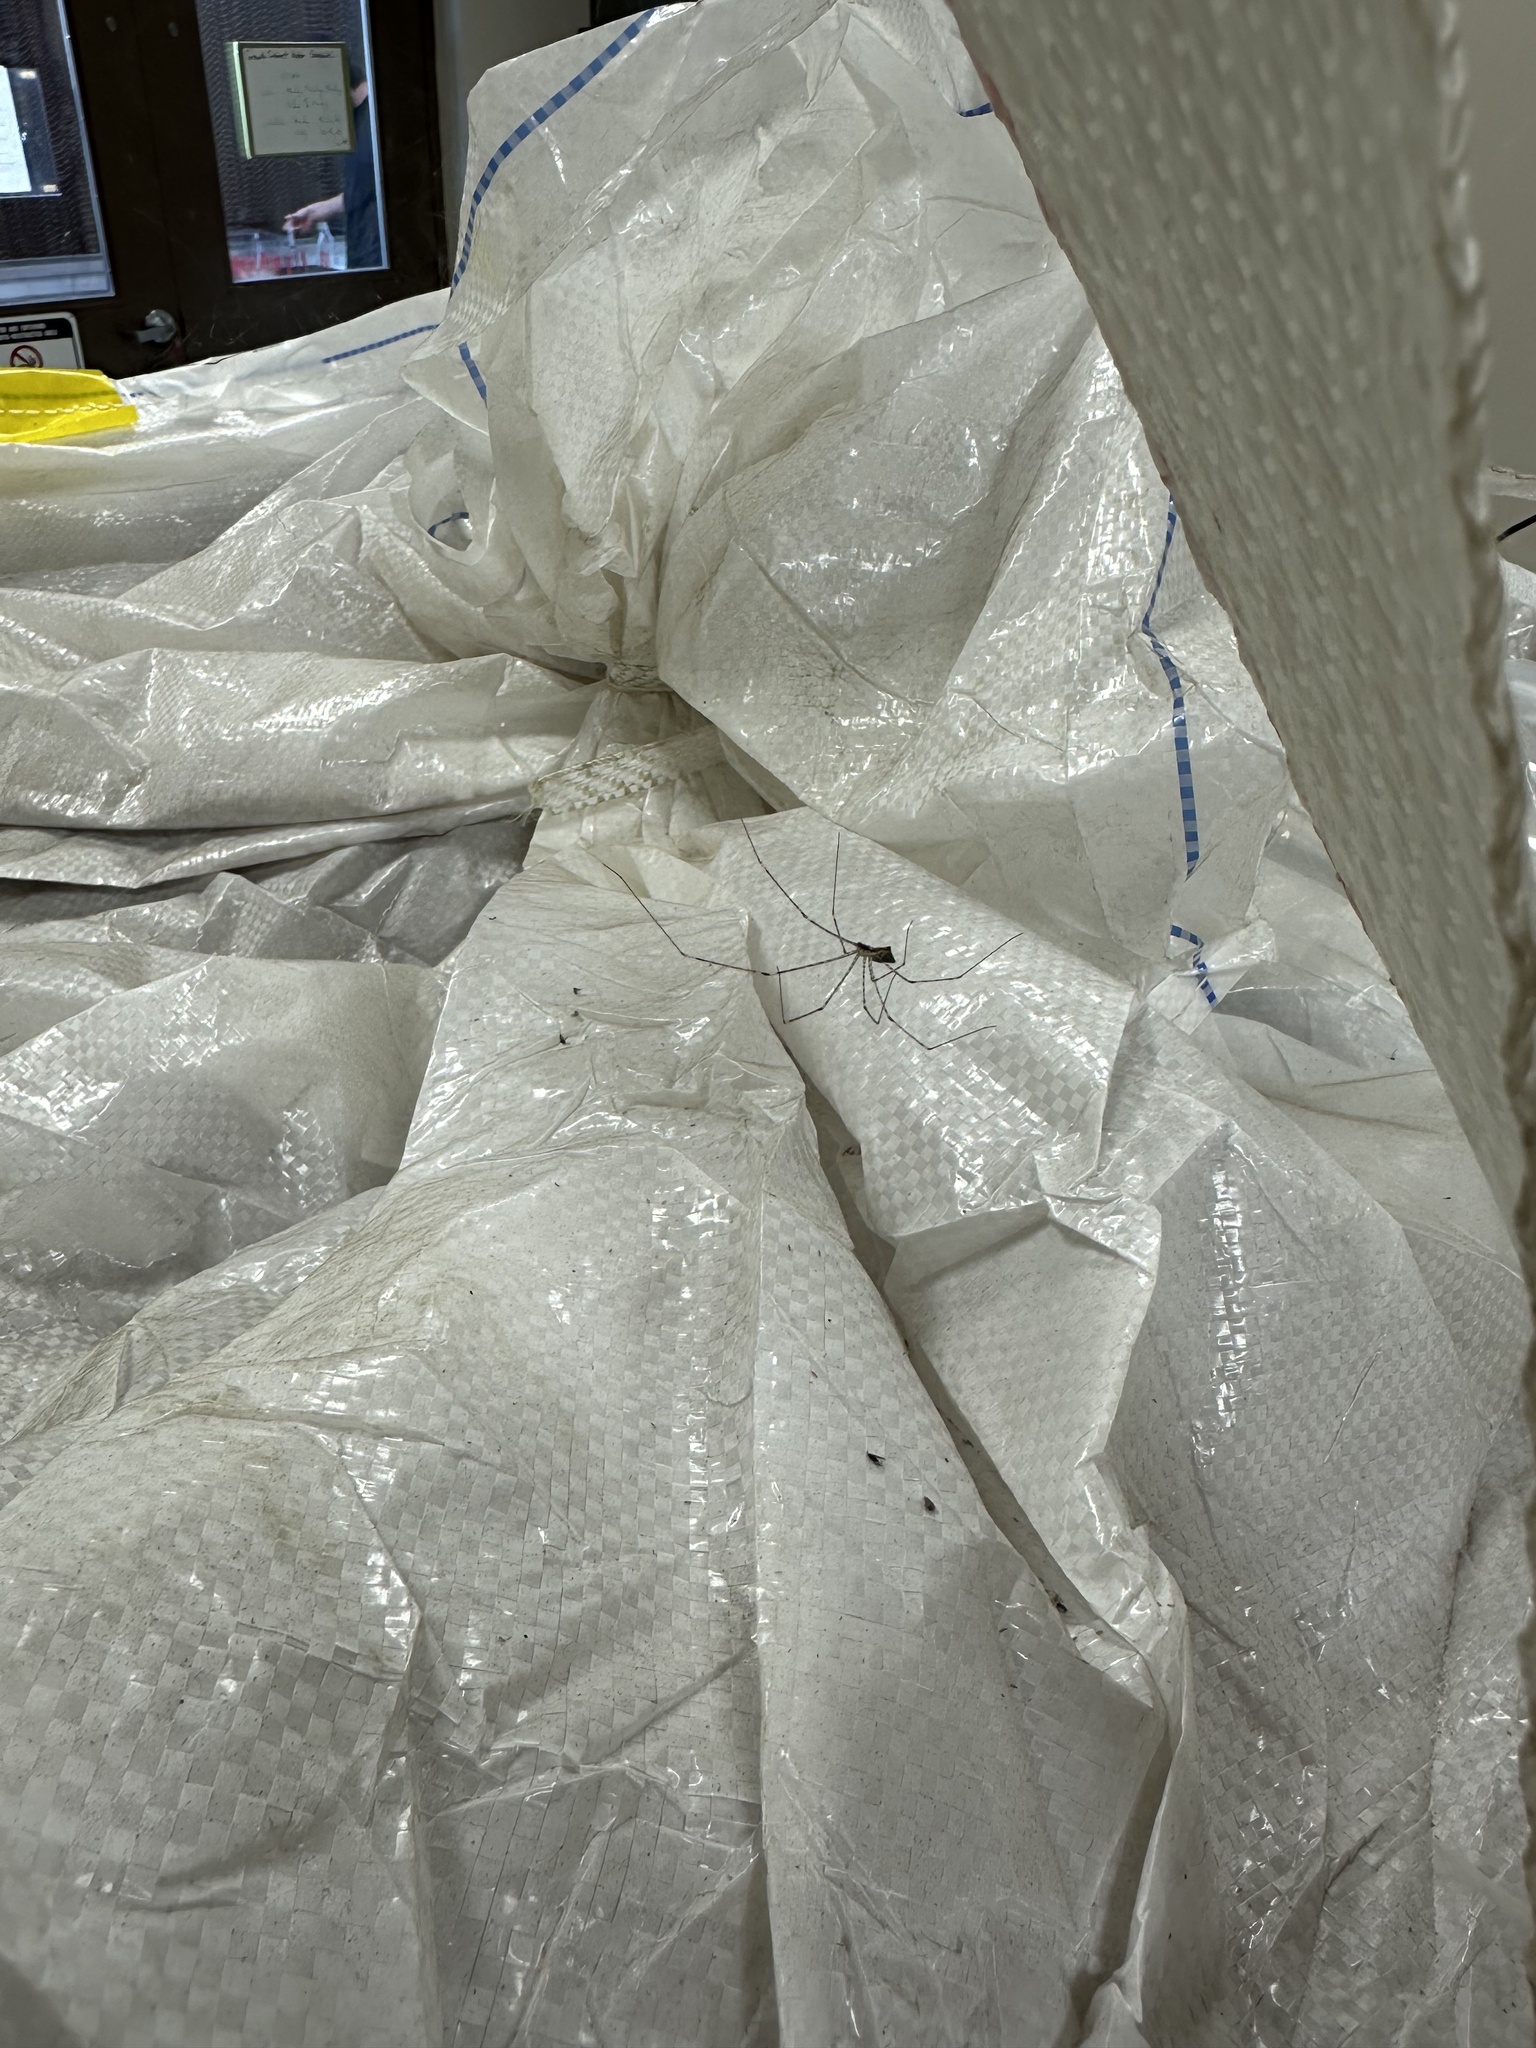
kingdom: Animalia
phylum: Arthropoda
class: Arachnida
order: Araneae
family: Pholcidae
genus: Crossopriza
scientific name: Crossopriza lyoni
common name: Cellar spiders
